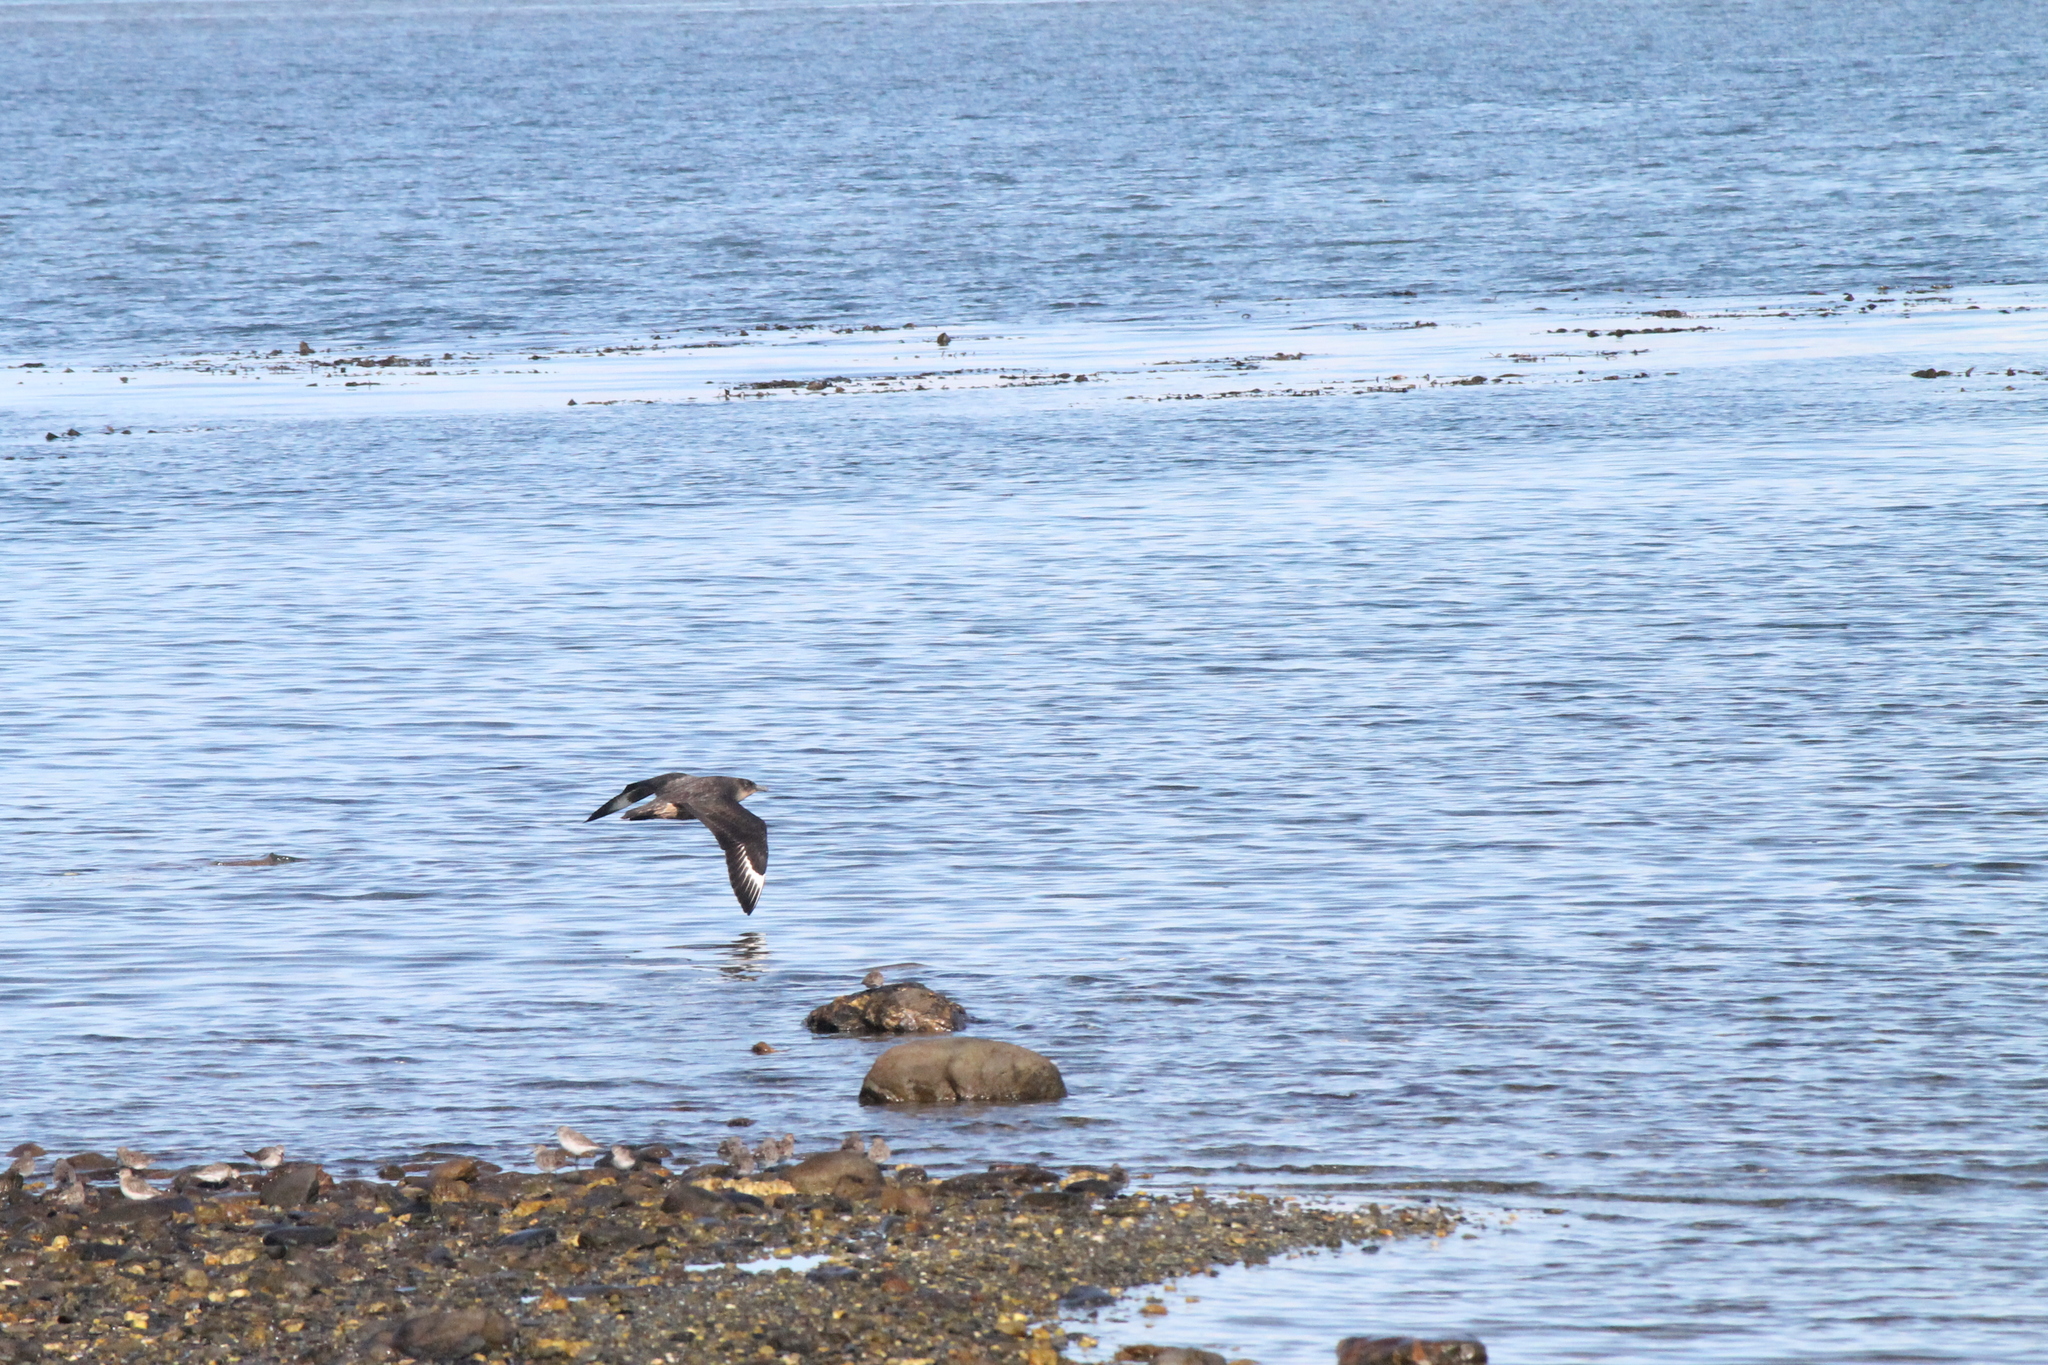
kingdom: Animalia
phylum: Chordata
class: Aves
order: Charadriiformes
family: Stercorariidae
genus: Stercorarius
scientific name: Stercorarius chilensis
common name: Chilean skua
